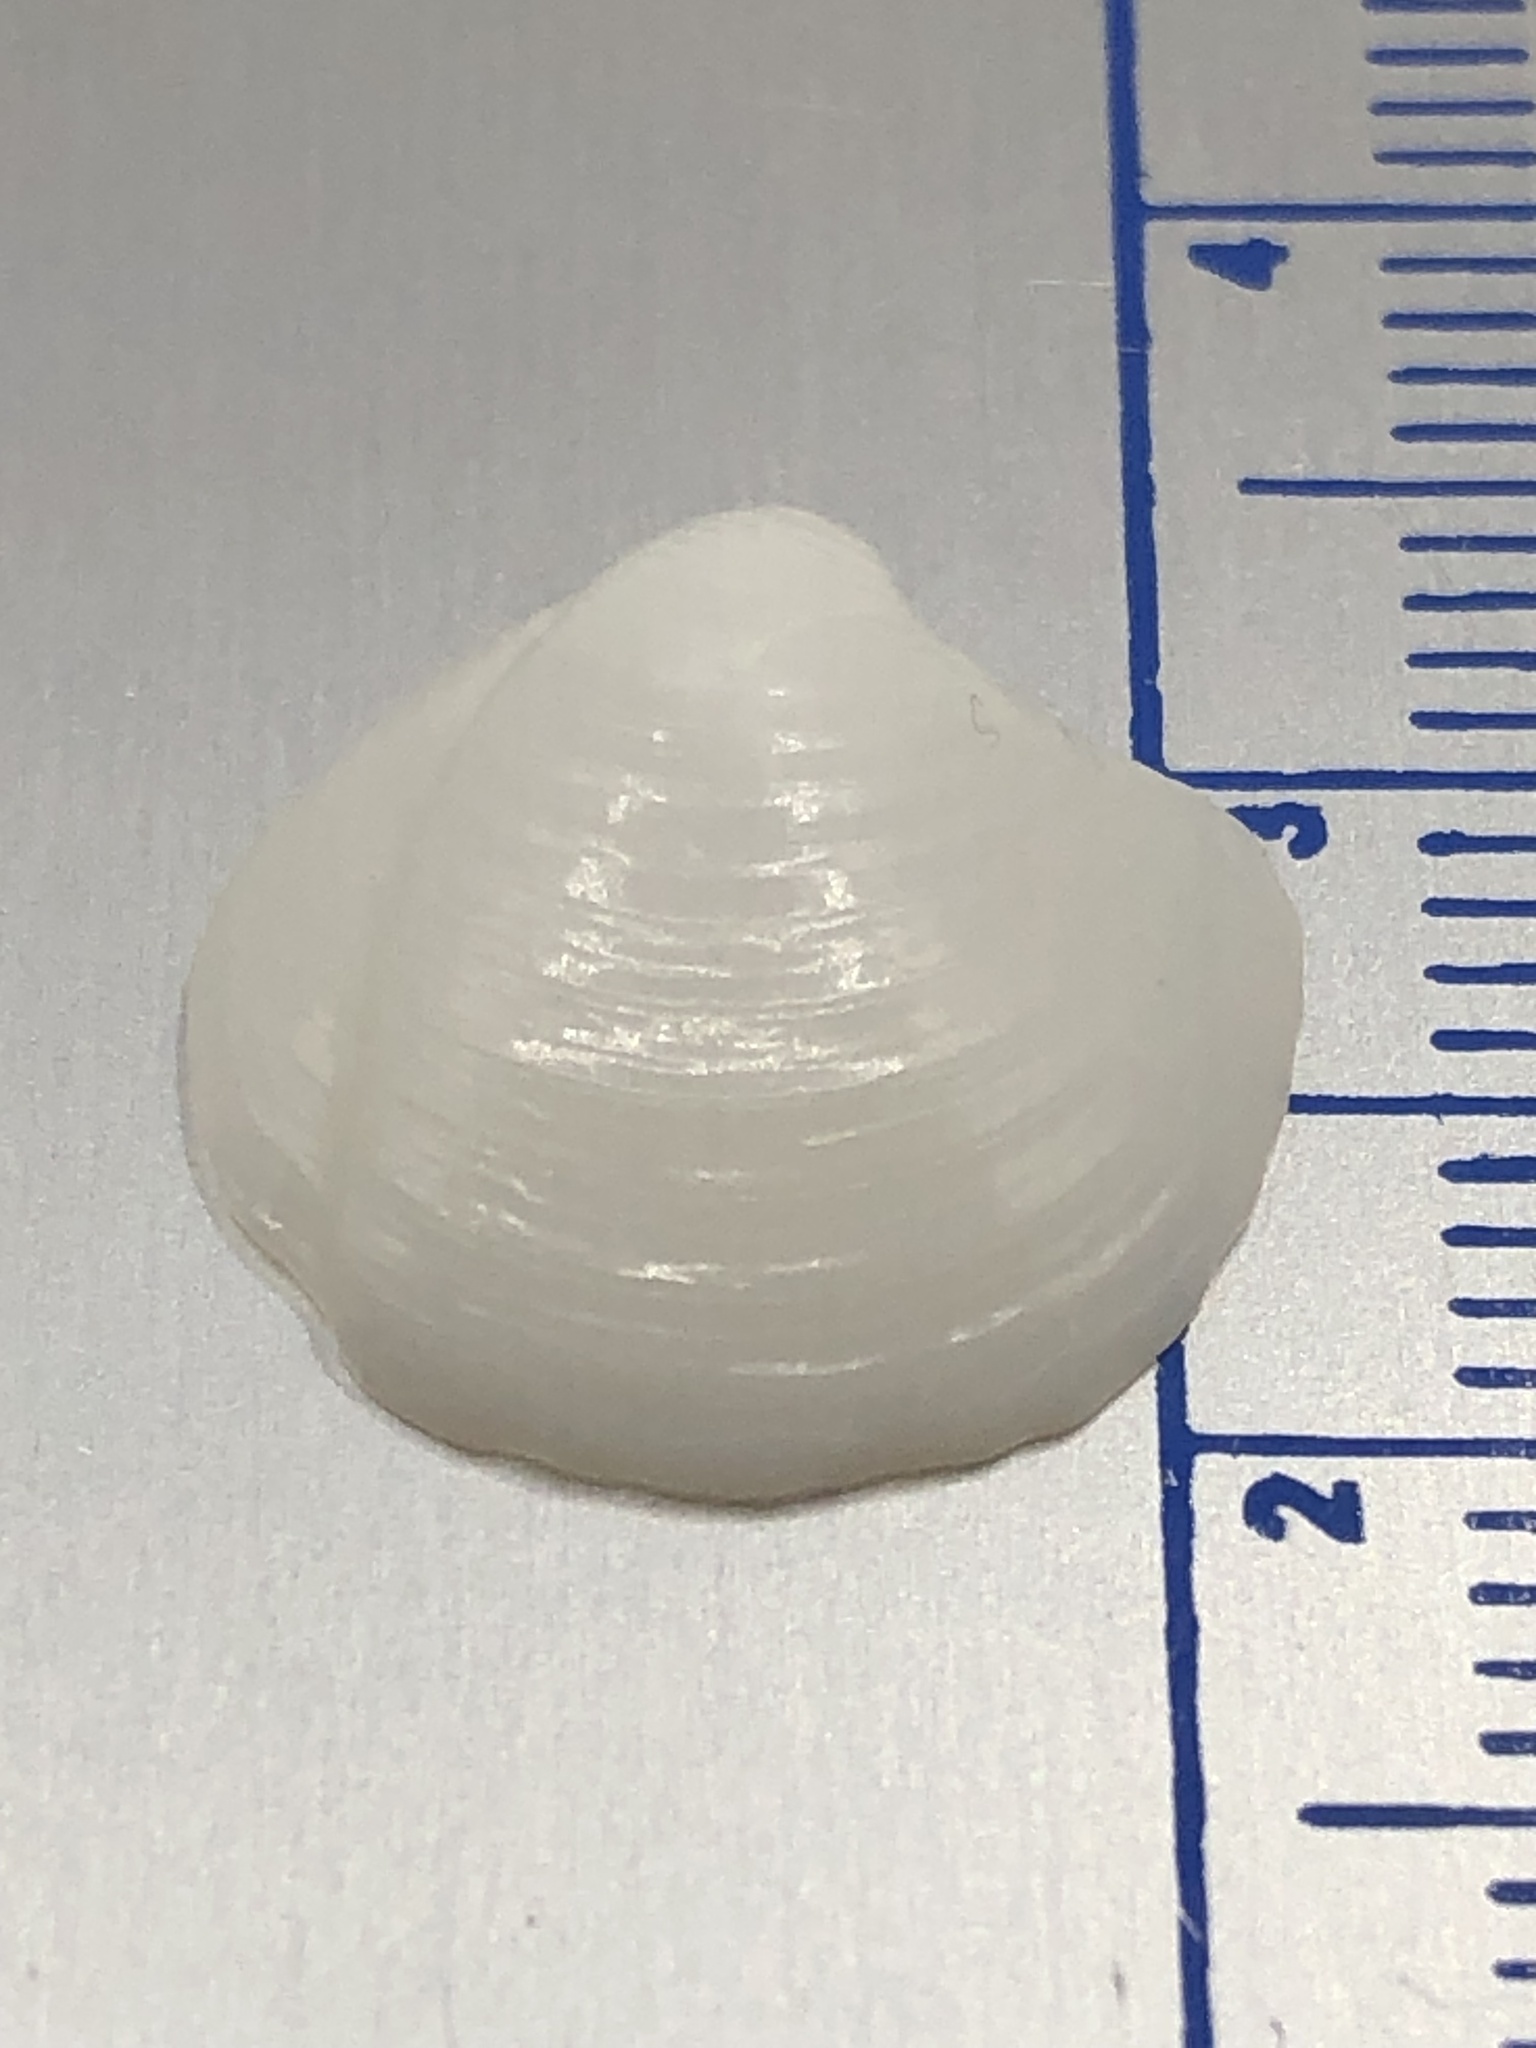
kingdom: Animalia
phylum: Mollusca
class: Bivalvia
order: Lucinida
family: Lucinidae
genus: Lucina
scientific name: Lucina pensylvanica
